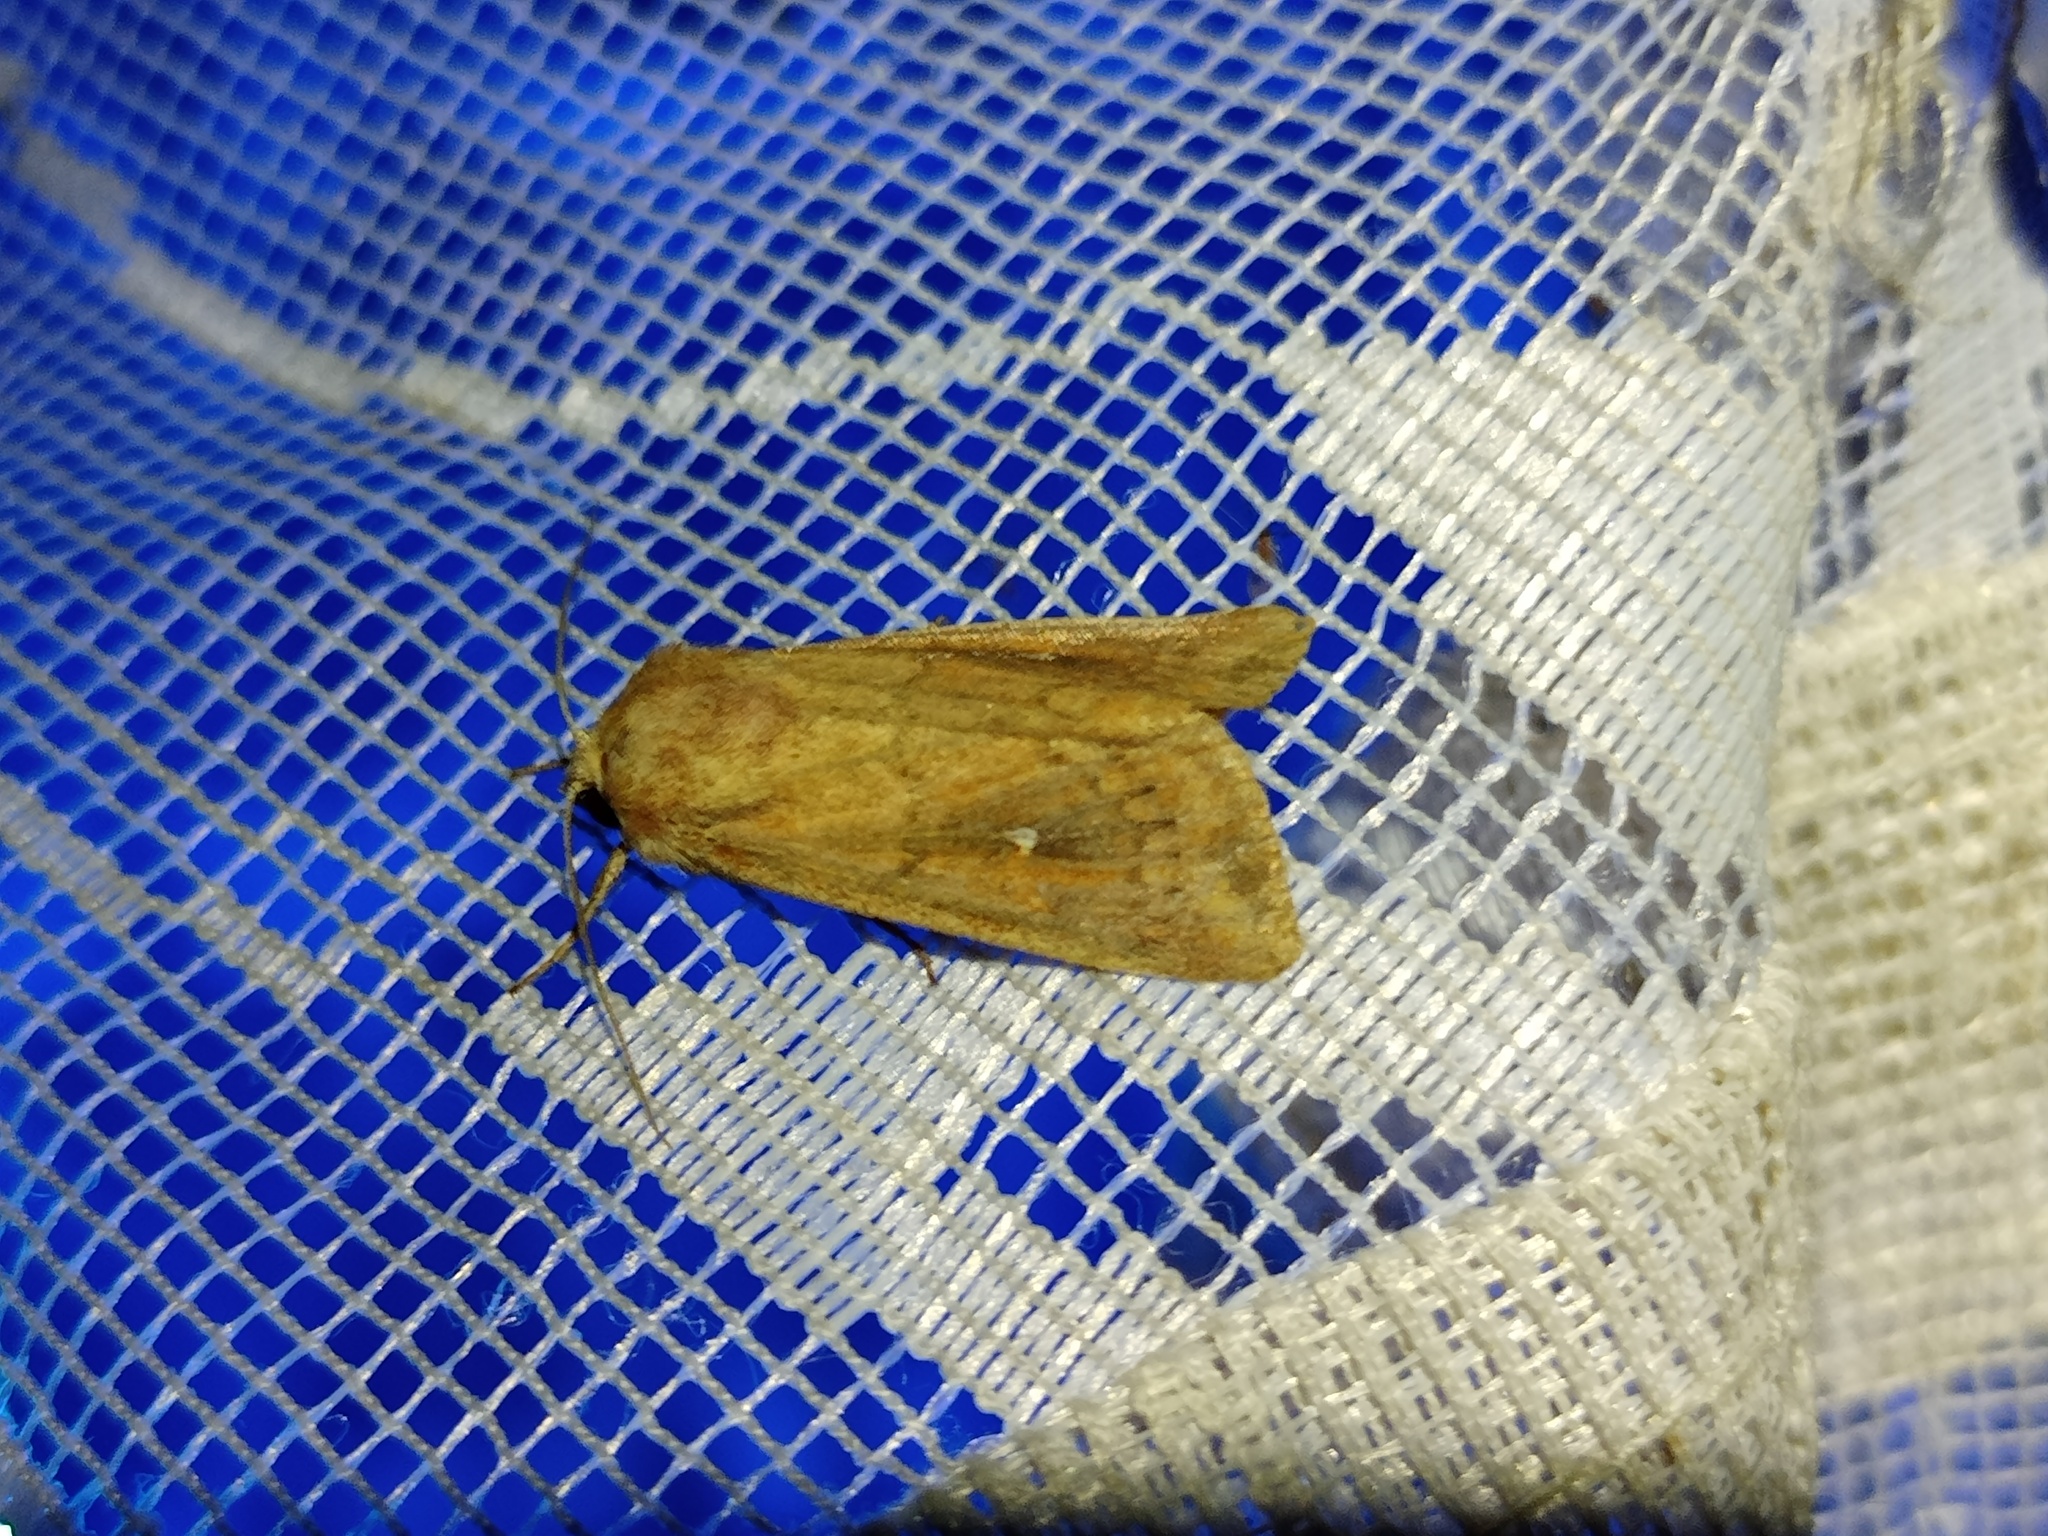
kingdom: Animalia
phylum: Arthropoda
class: Insecta
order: Lepidoptera
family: Noctuidae
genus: Mythimna
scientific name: Mythimna albipuncta
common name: White-point
